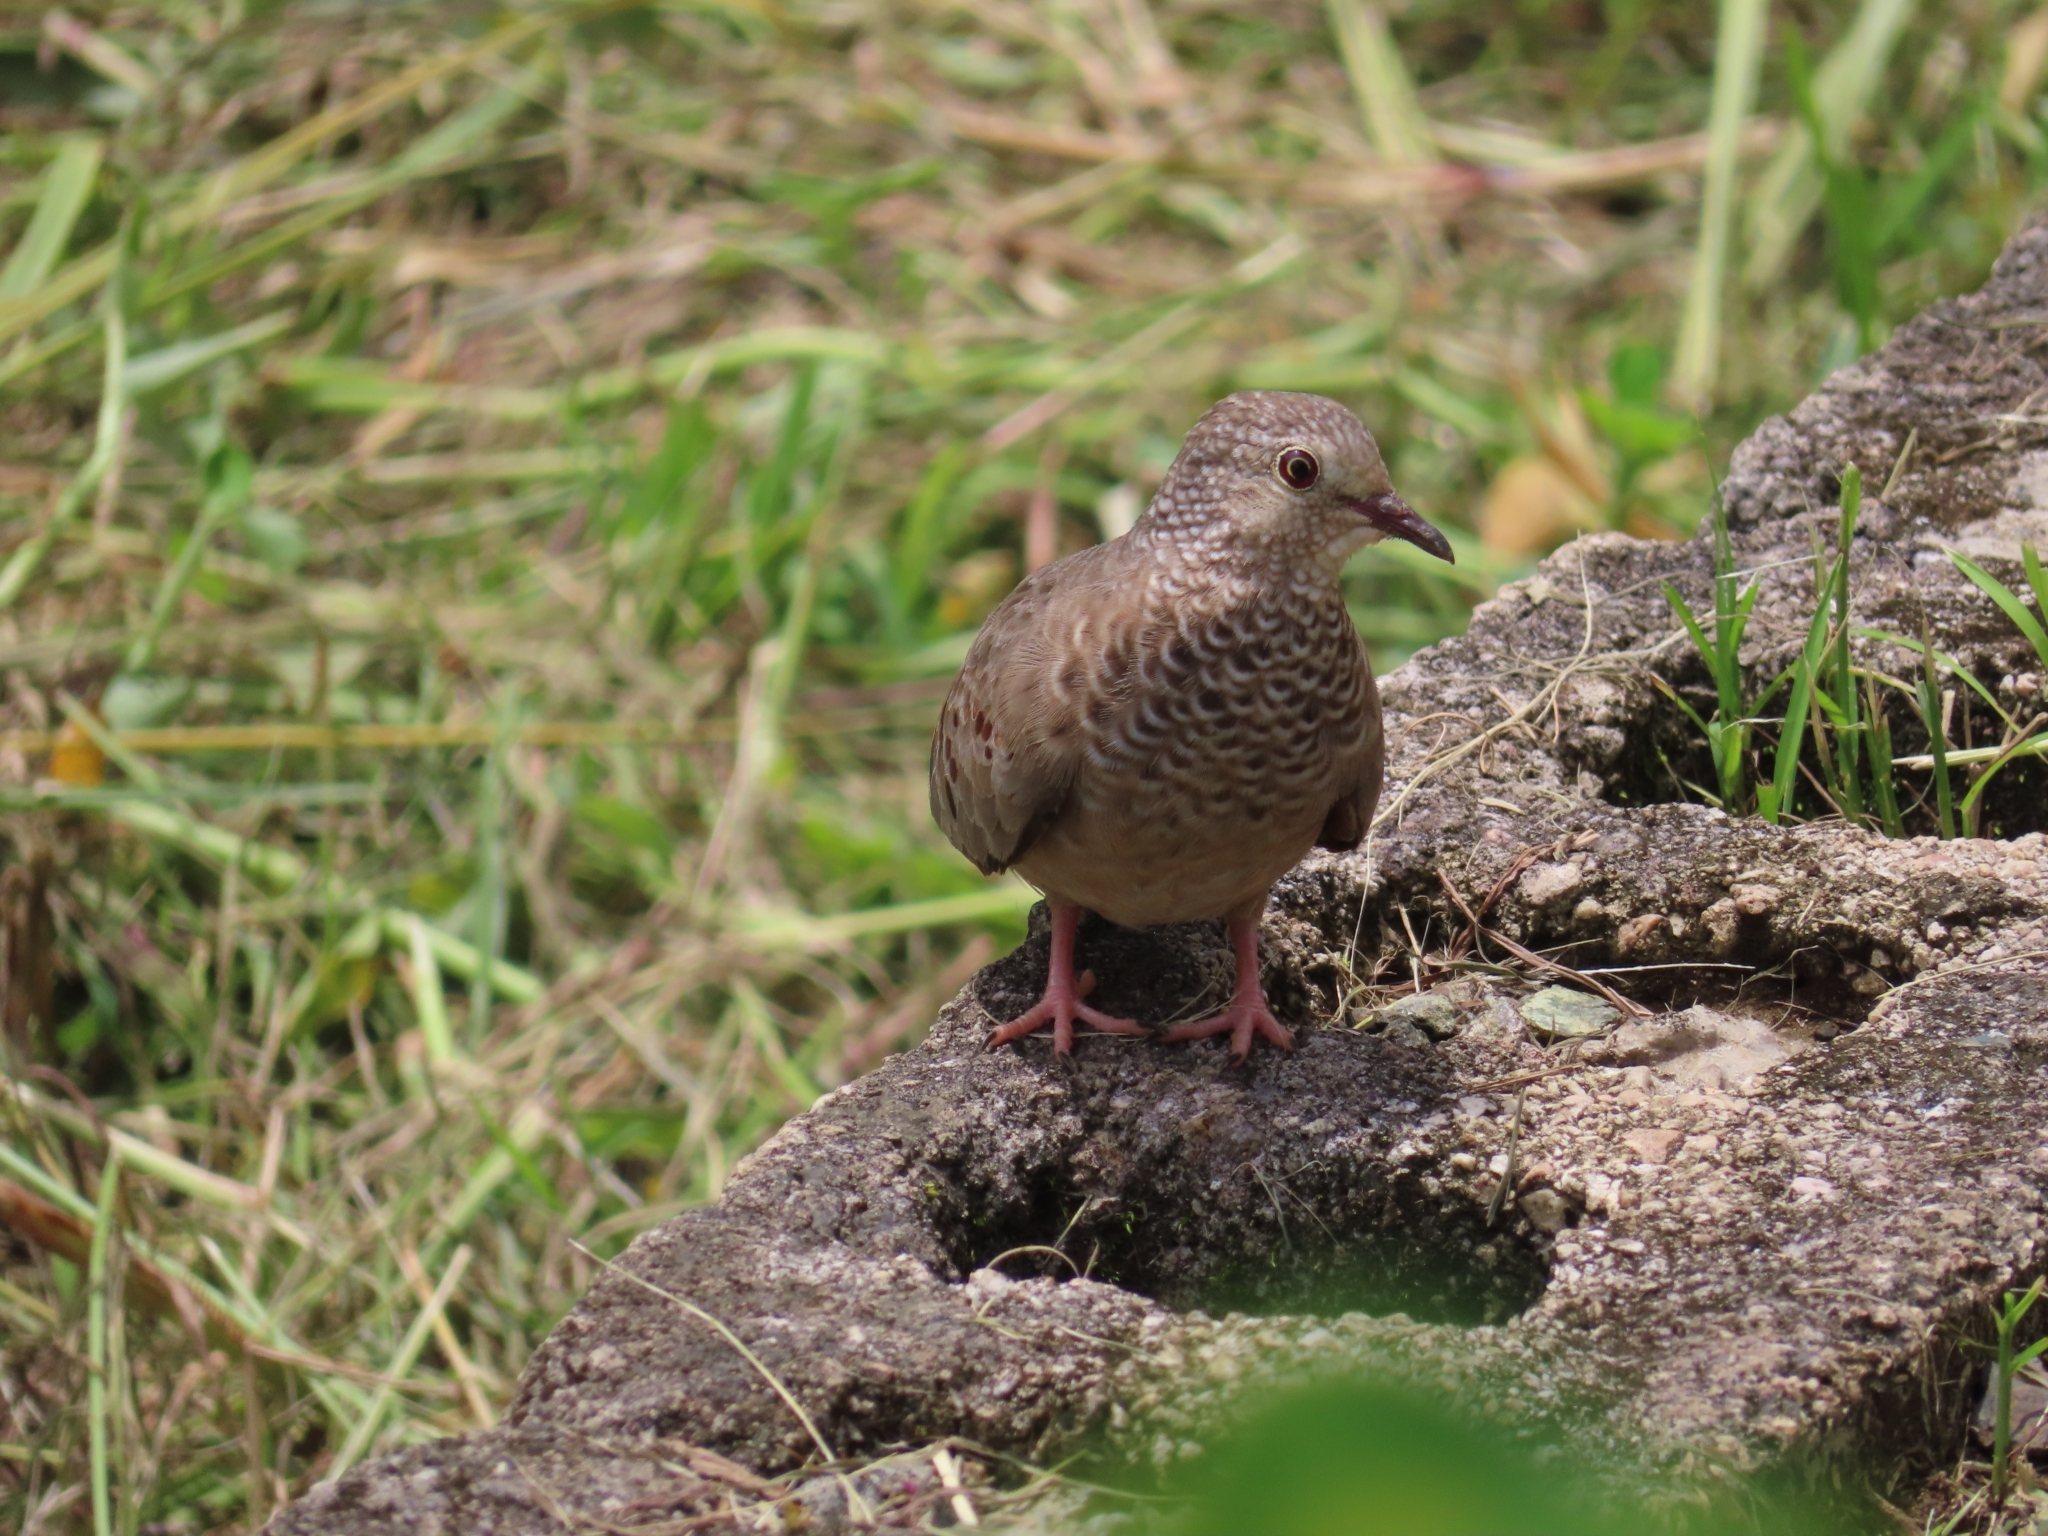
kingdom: Animalia
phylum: Chordata
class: Aves
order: Columbiformes
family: Columbidae
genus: Columbina
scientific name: Columbina passerina
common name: Common ground-dove
